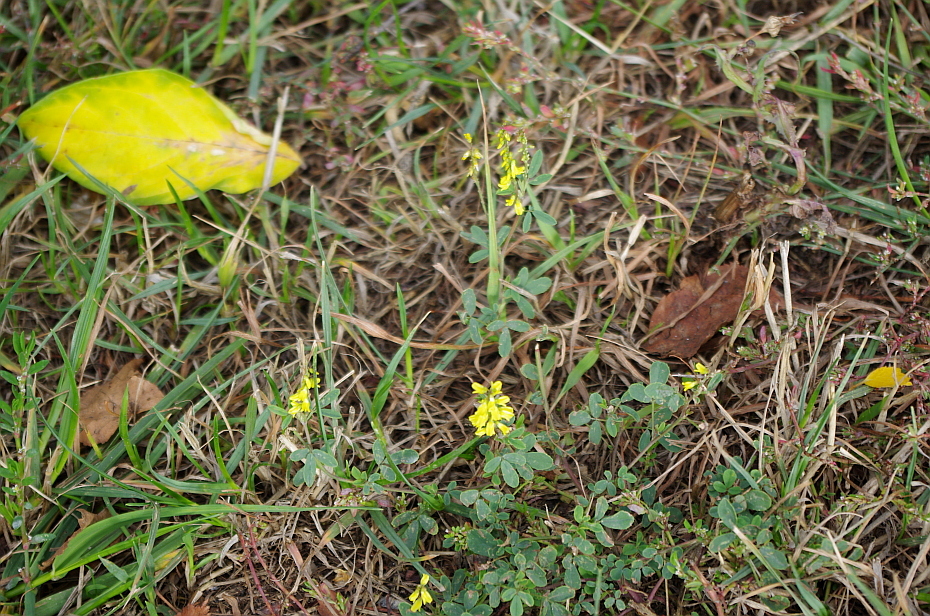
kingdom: Plantae
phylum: Tracheophyta
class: Magnoliopsida
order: Fabales
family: Fabaceae
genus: Melilotus
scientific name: Melilotus officinalis
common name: Sweetclover
